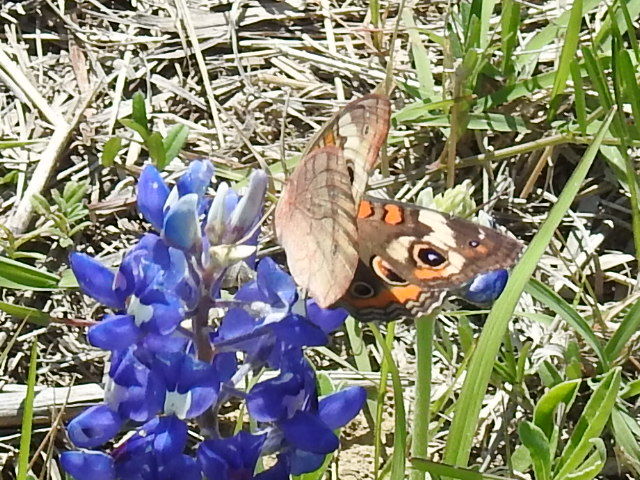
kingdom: Animalia
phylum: Arthropoda
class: Insecta
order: Lepidoptera
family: Nymphalidae
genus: Junonia
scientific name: Junonia coenia
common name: Common buckeye
